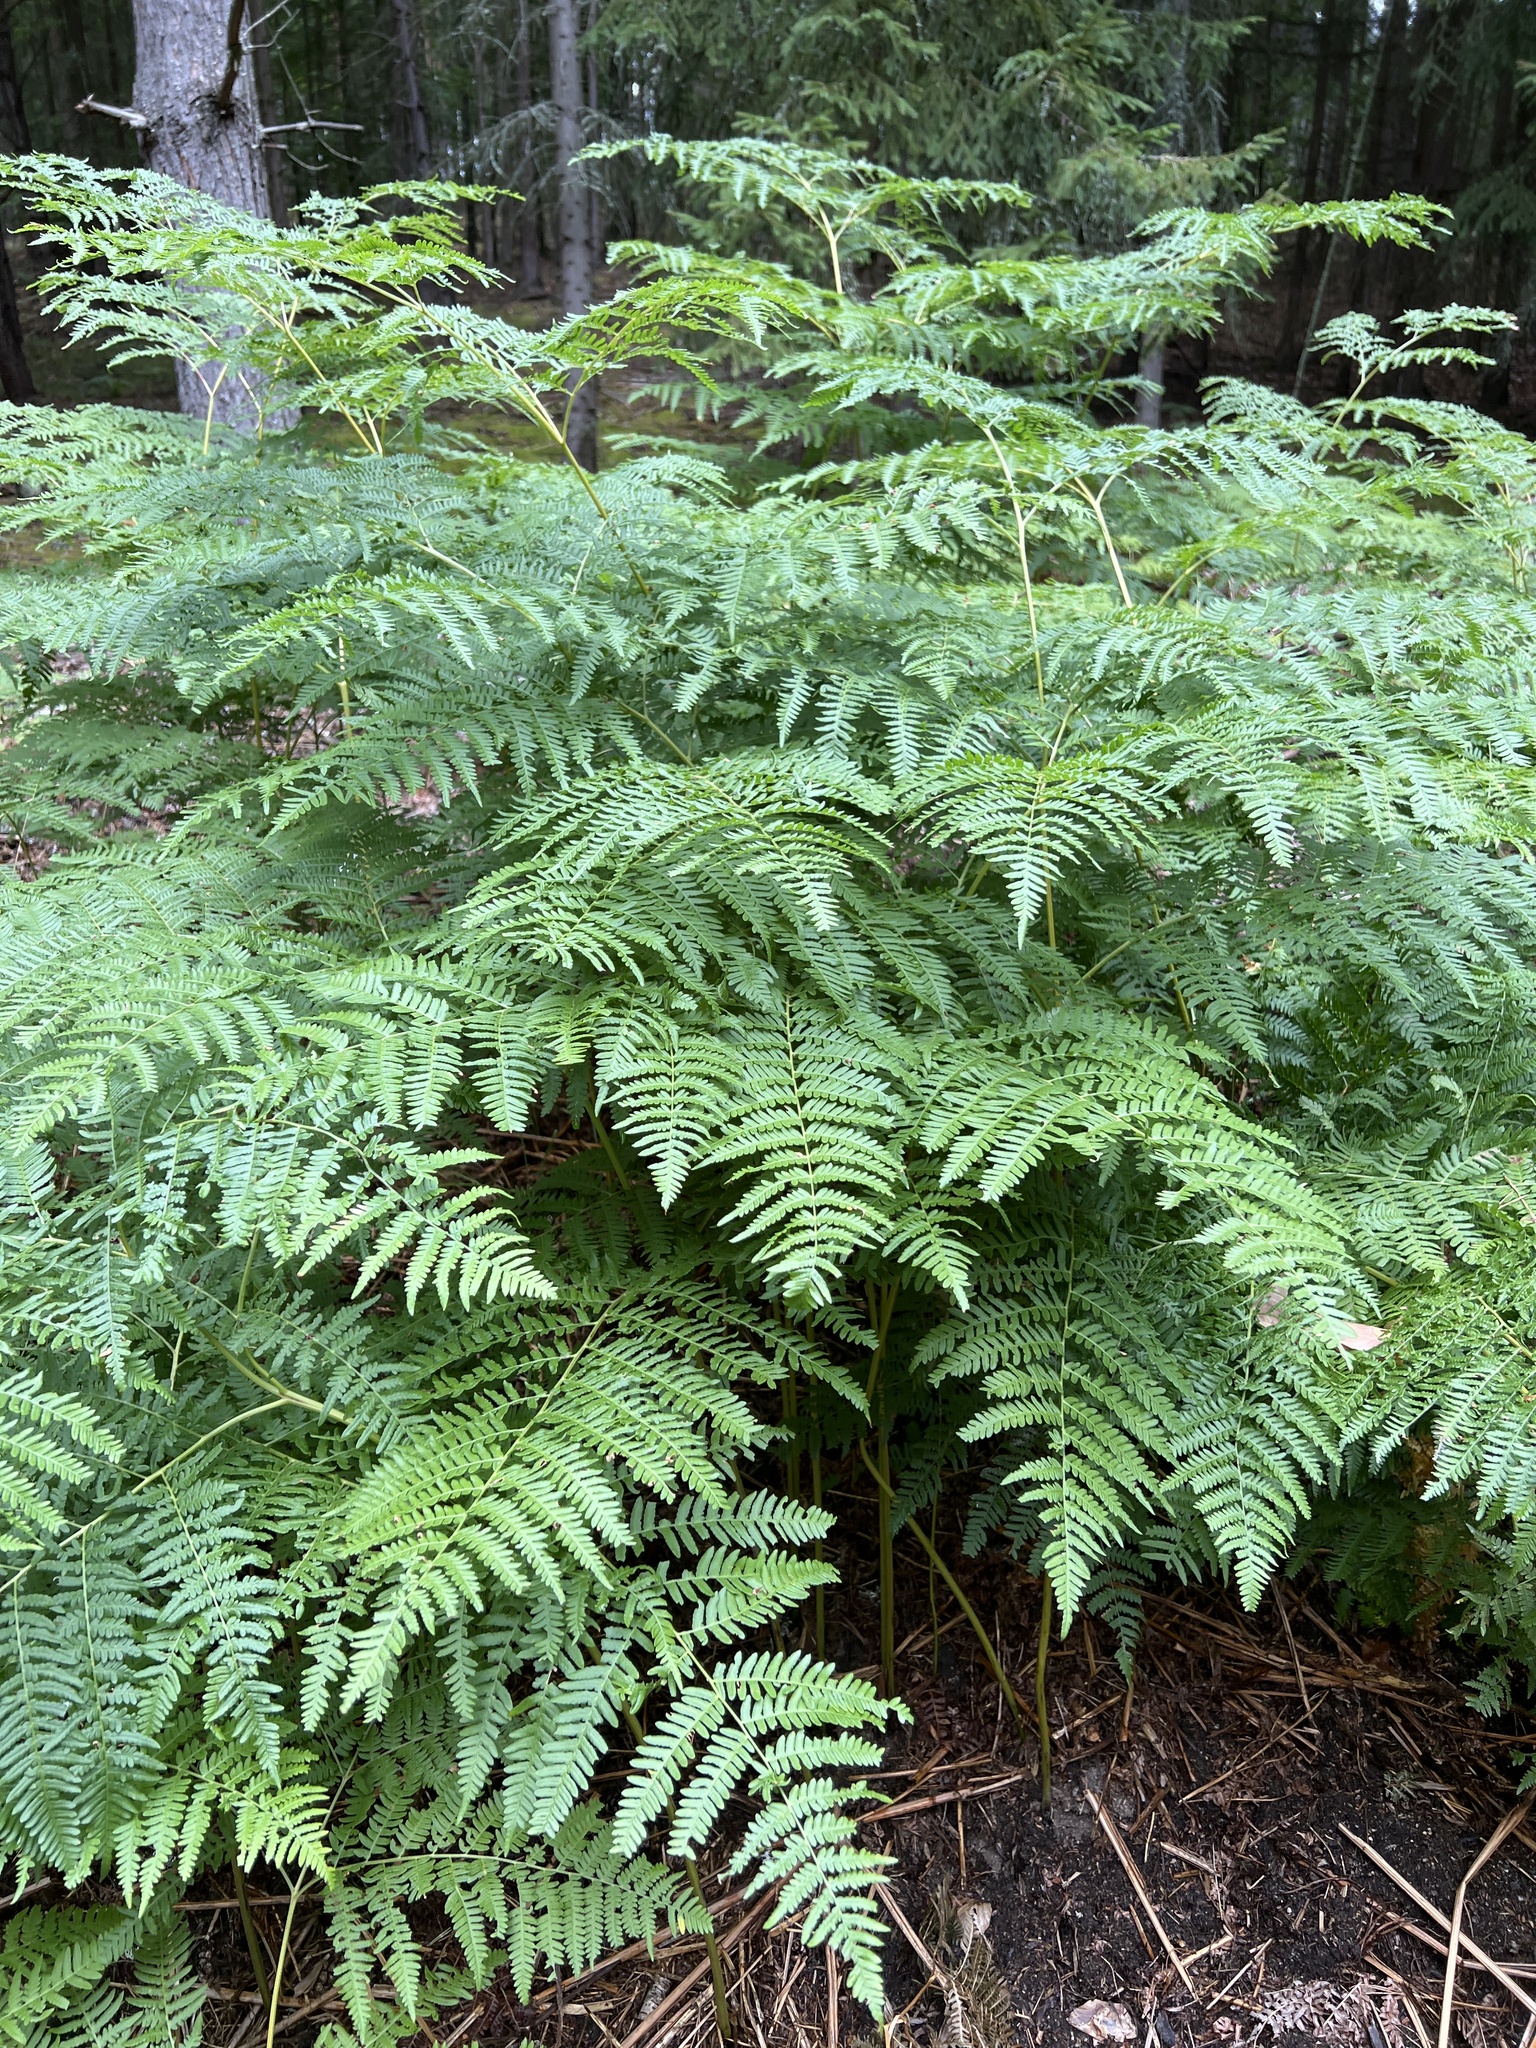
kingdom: Plantae
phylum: Tracheophyta
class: Polypodiopsida
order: Polypodiales
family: Dennstaedtiaceae
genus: Pteridium
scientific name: Pteridium aquilinum
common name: Bracken
